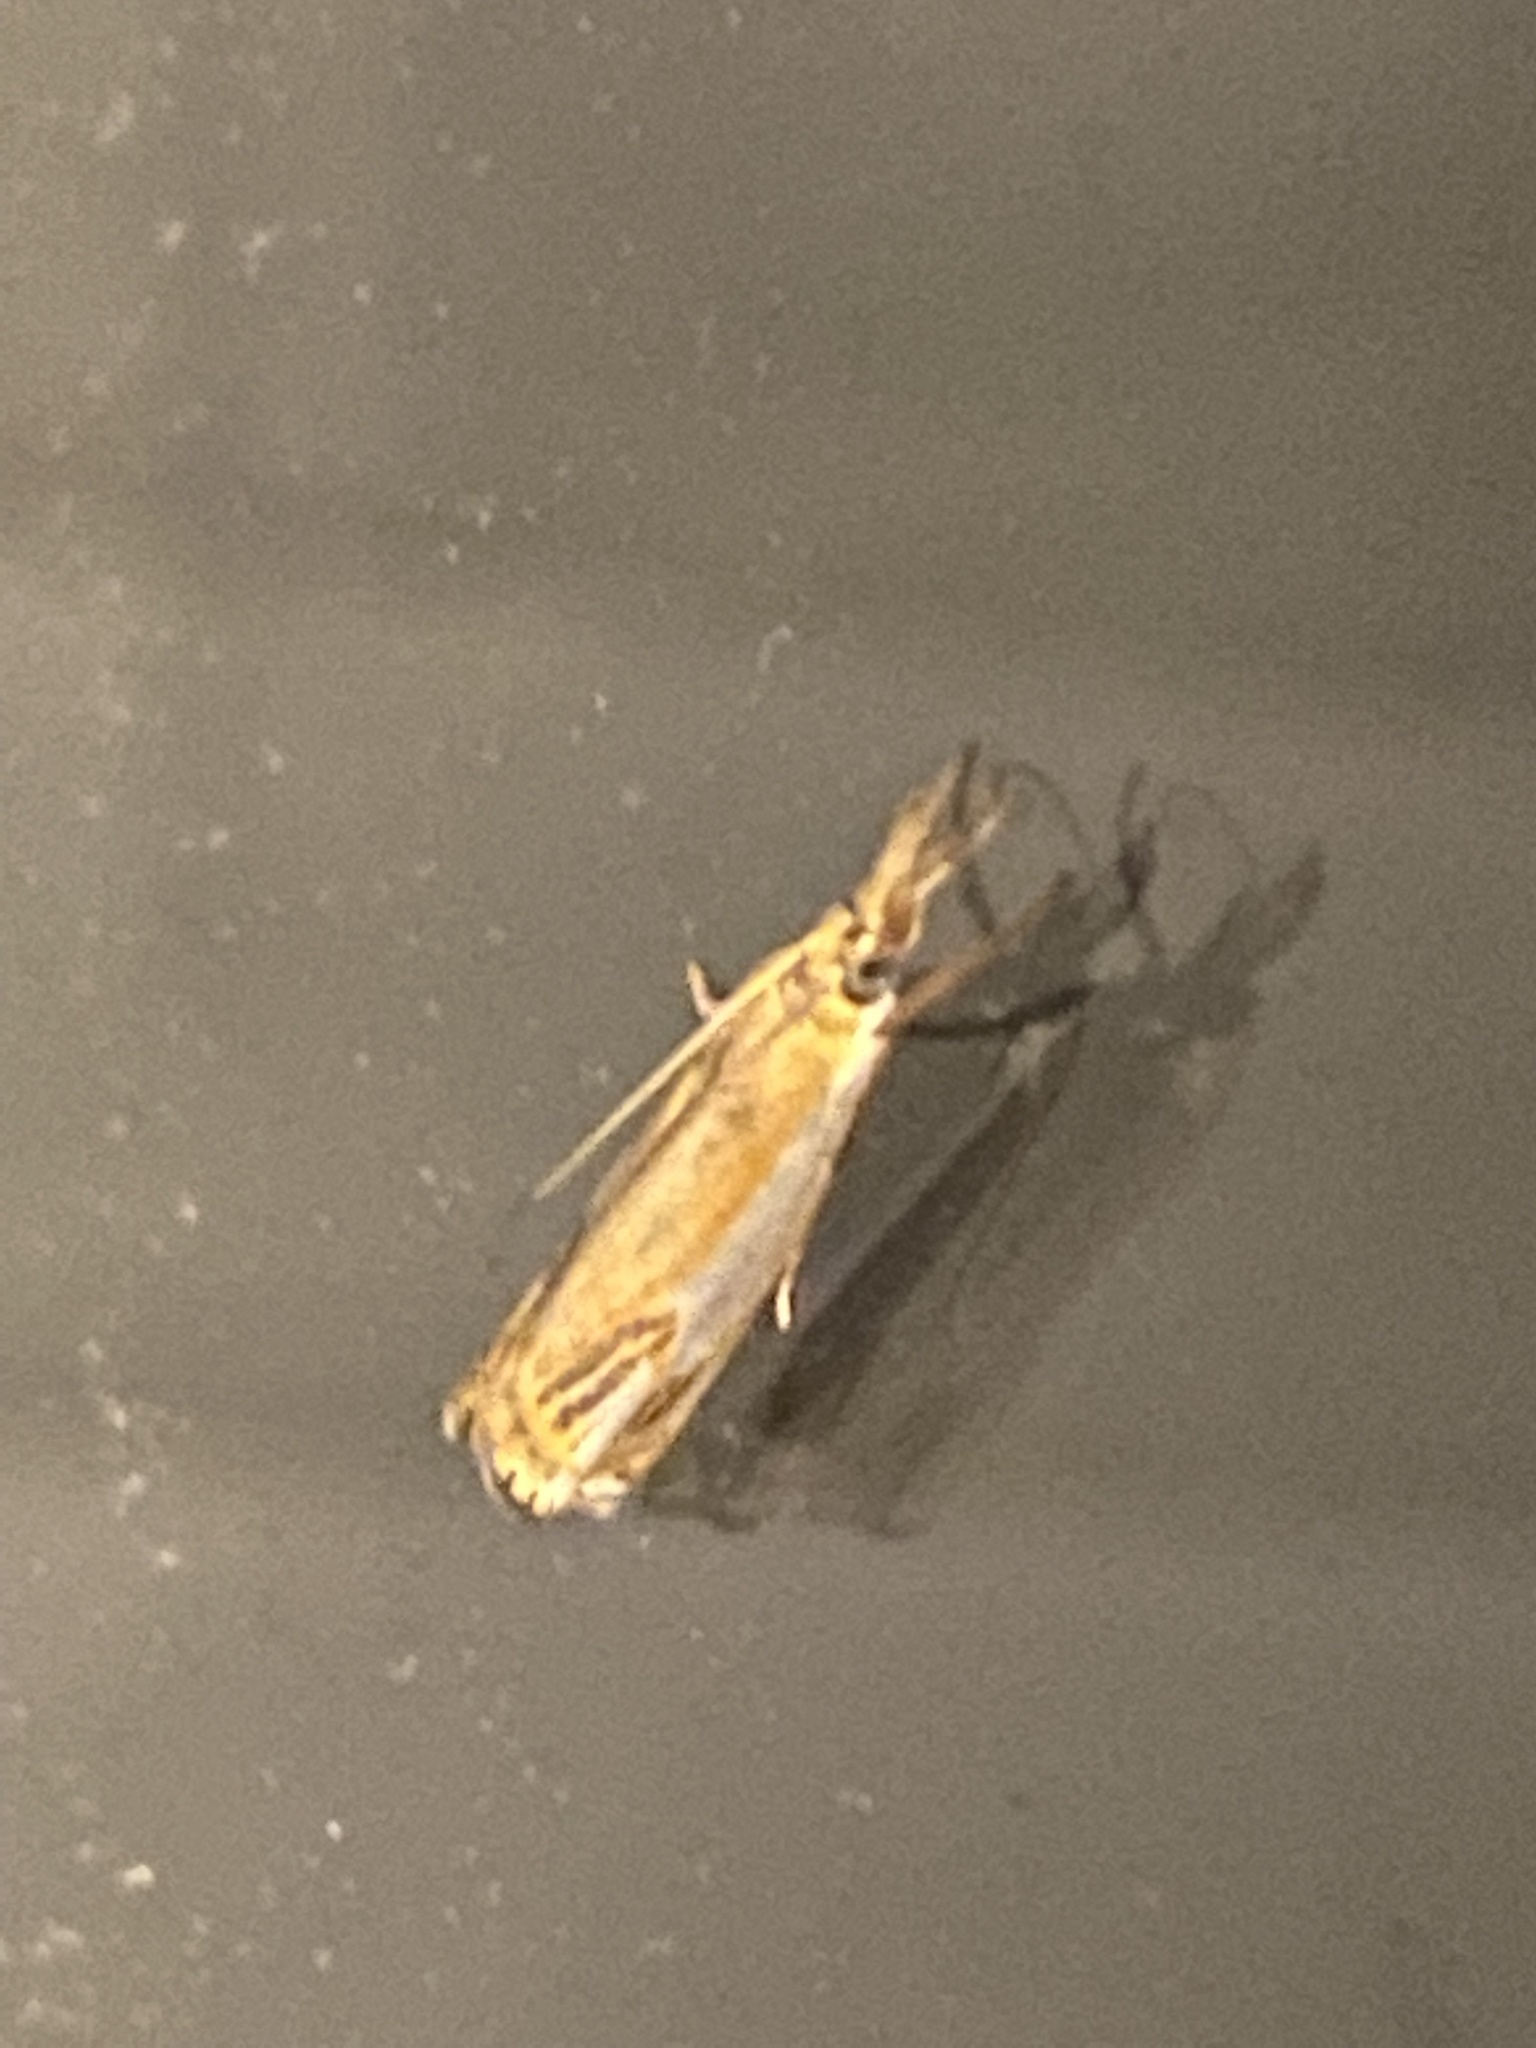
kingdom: Animalia
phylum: Arthropoda
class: Insecta
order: Lepidoptera
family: Crambidae
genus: Crambus
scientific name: Crambus agitatellus
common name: Double-banded grass-veneer
